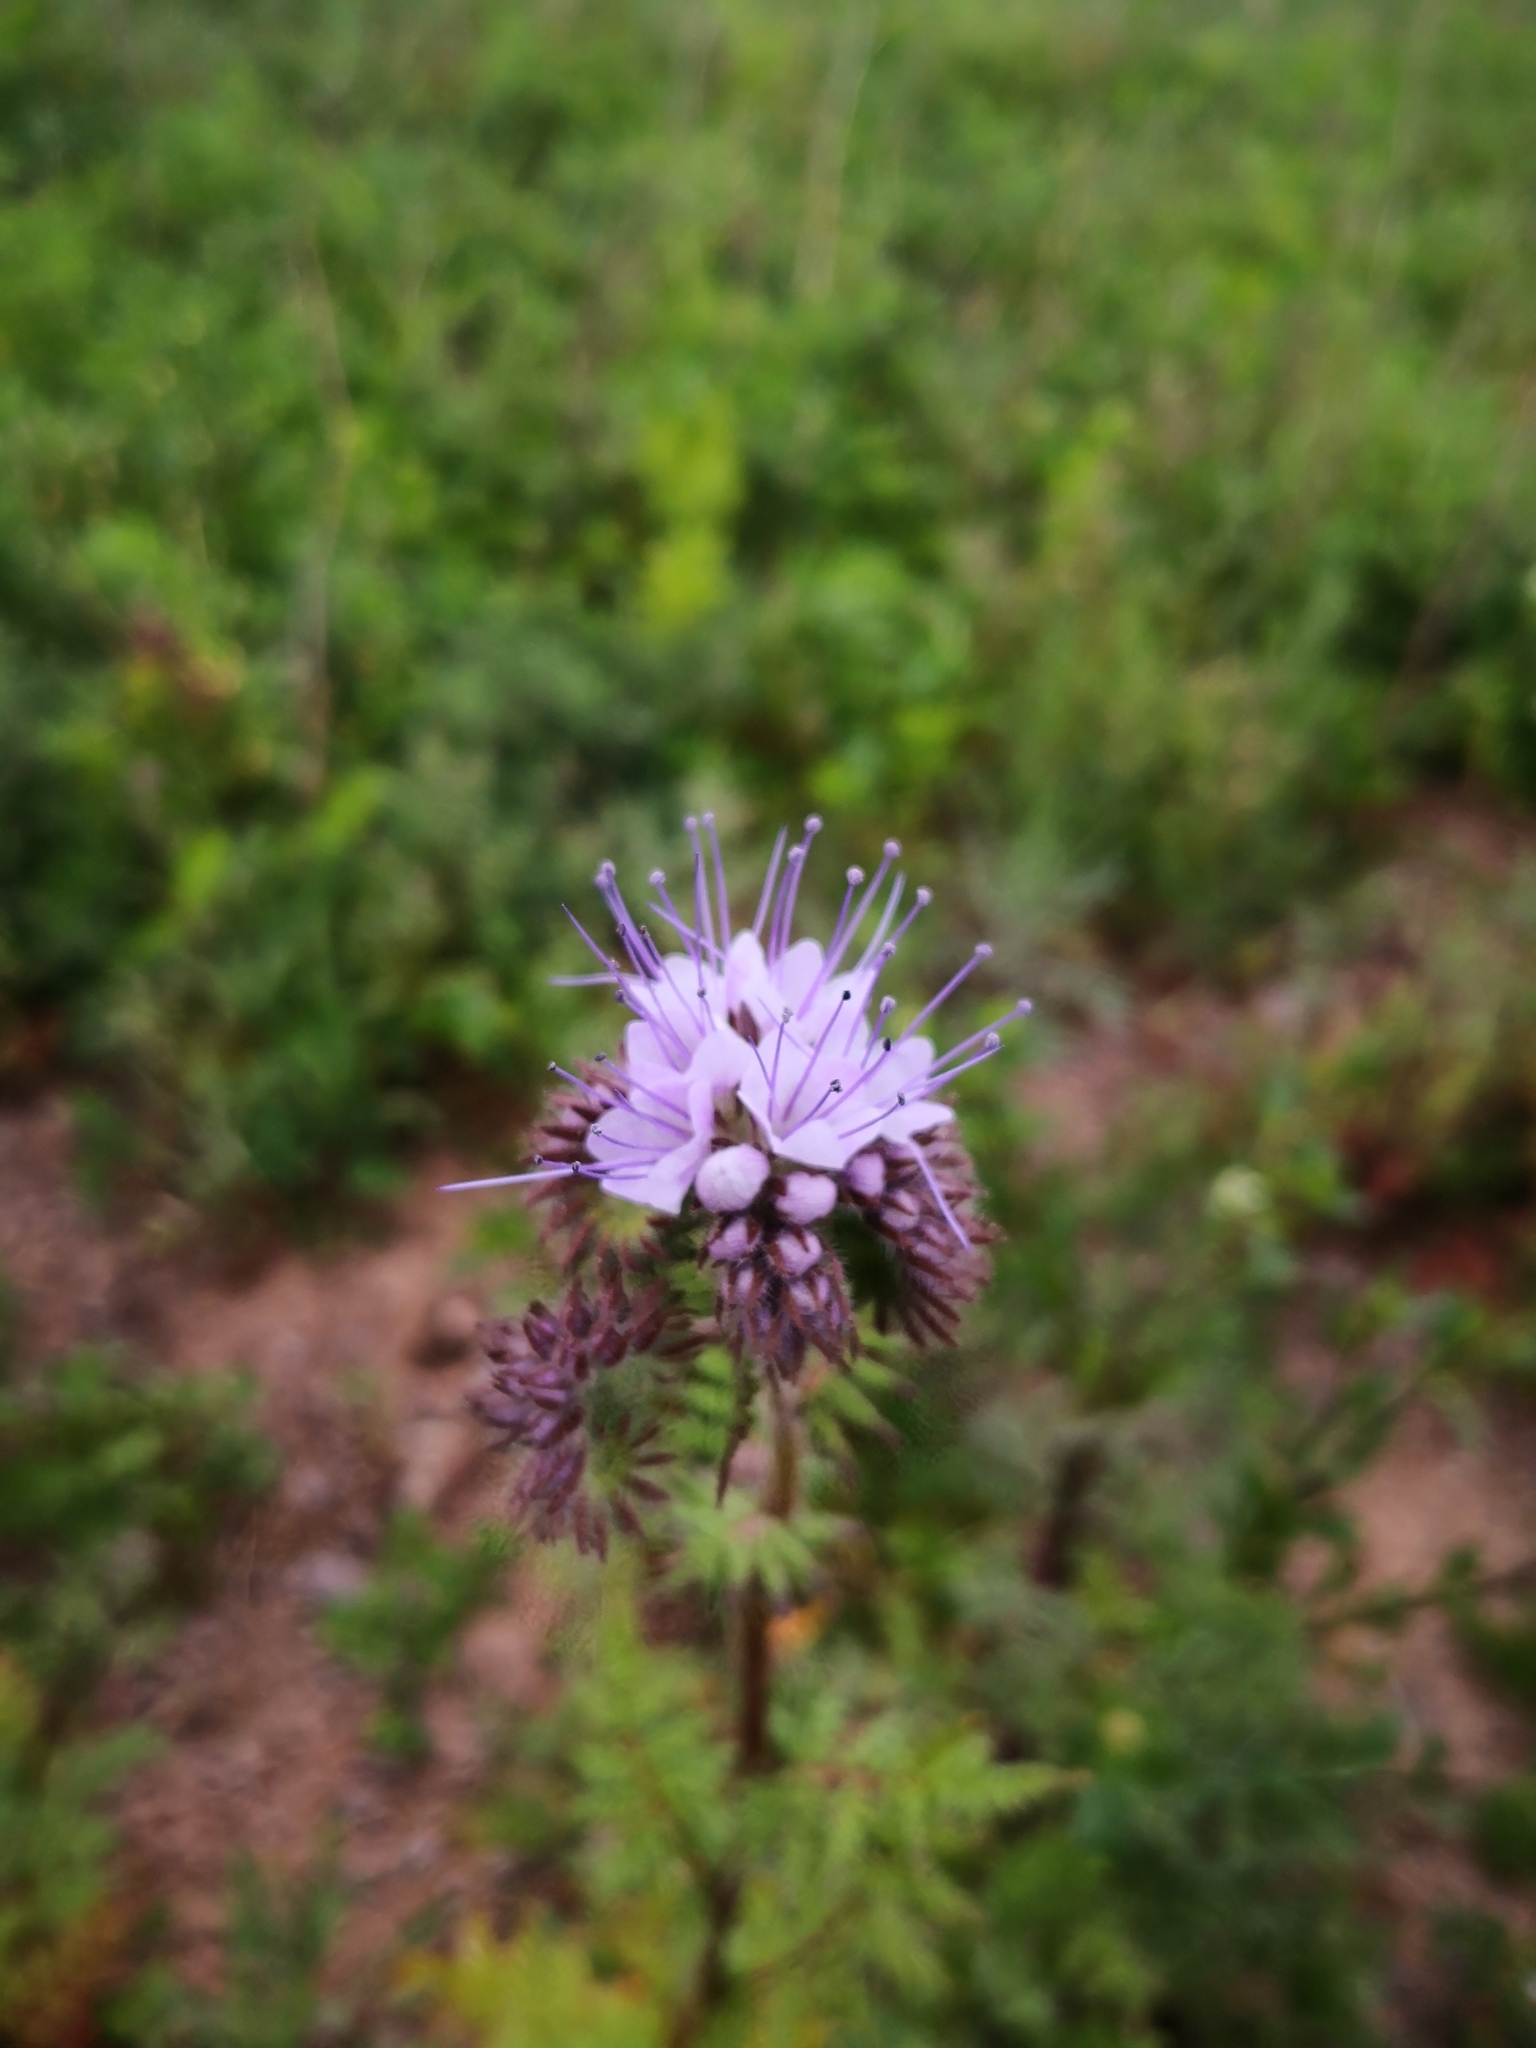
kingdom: Plantae
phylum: Tracheophyta
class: Magnoliopsida
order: Boraginales
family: Hydrophyllaceae
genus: Phacelia
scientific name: Phacelia tanacetifolia
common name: Phacelia
